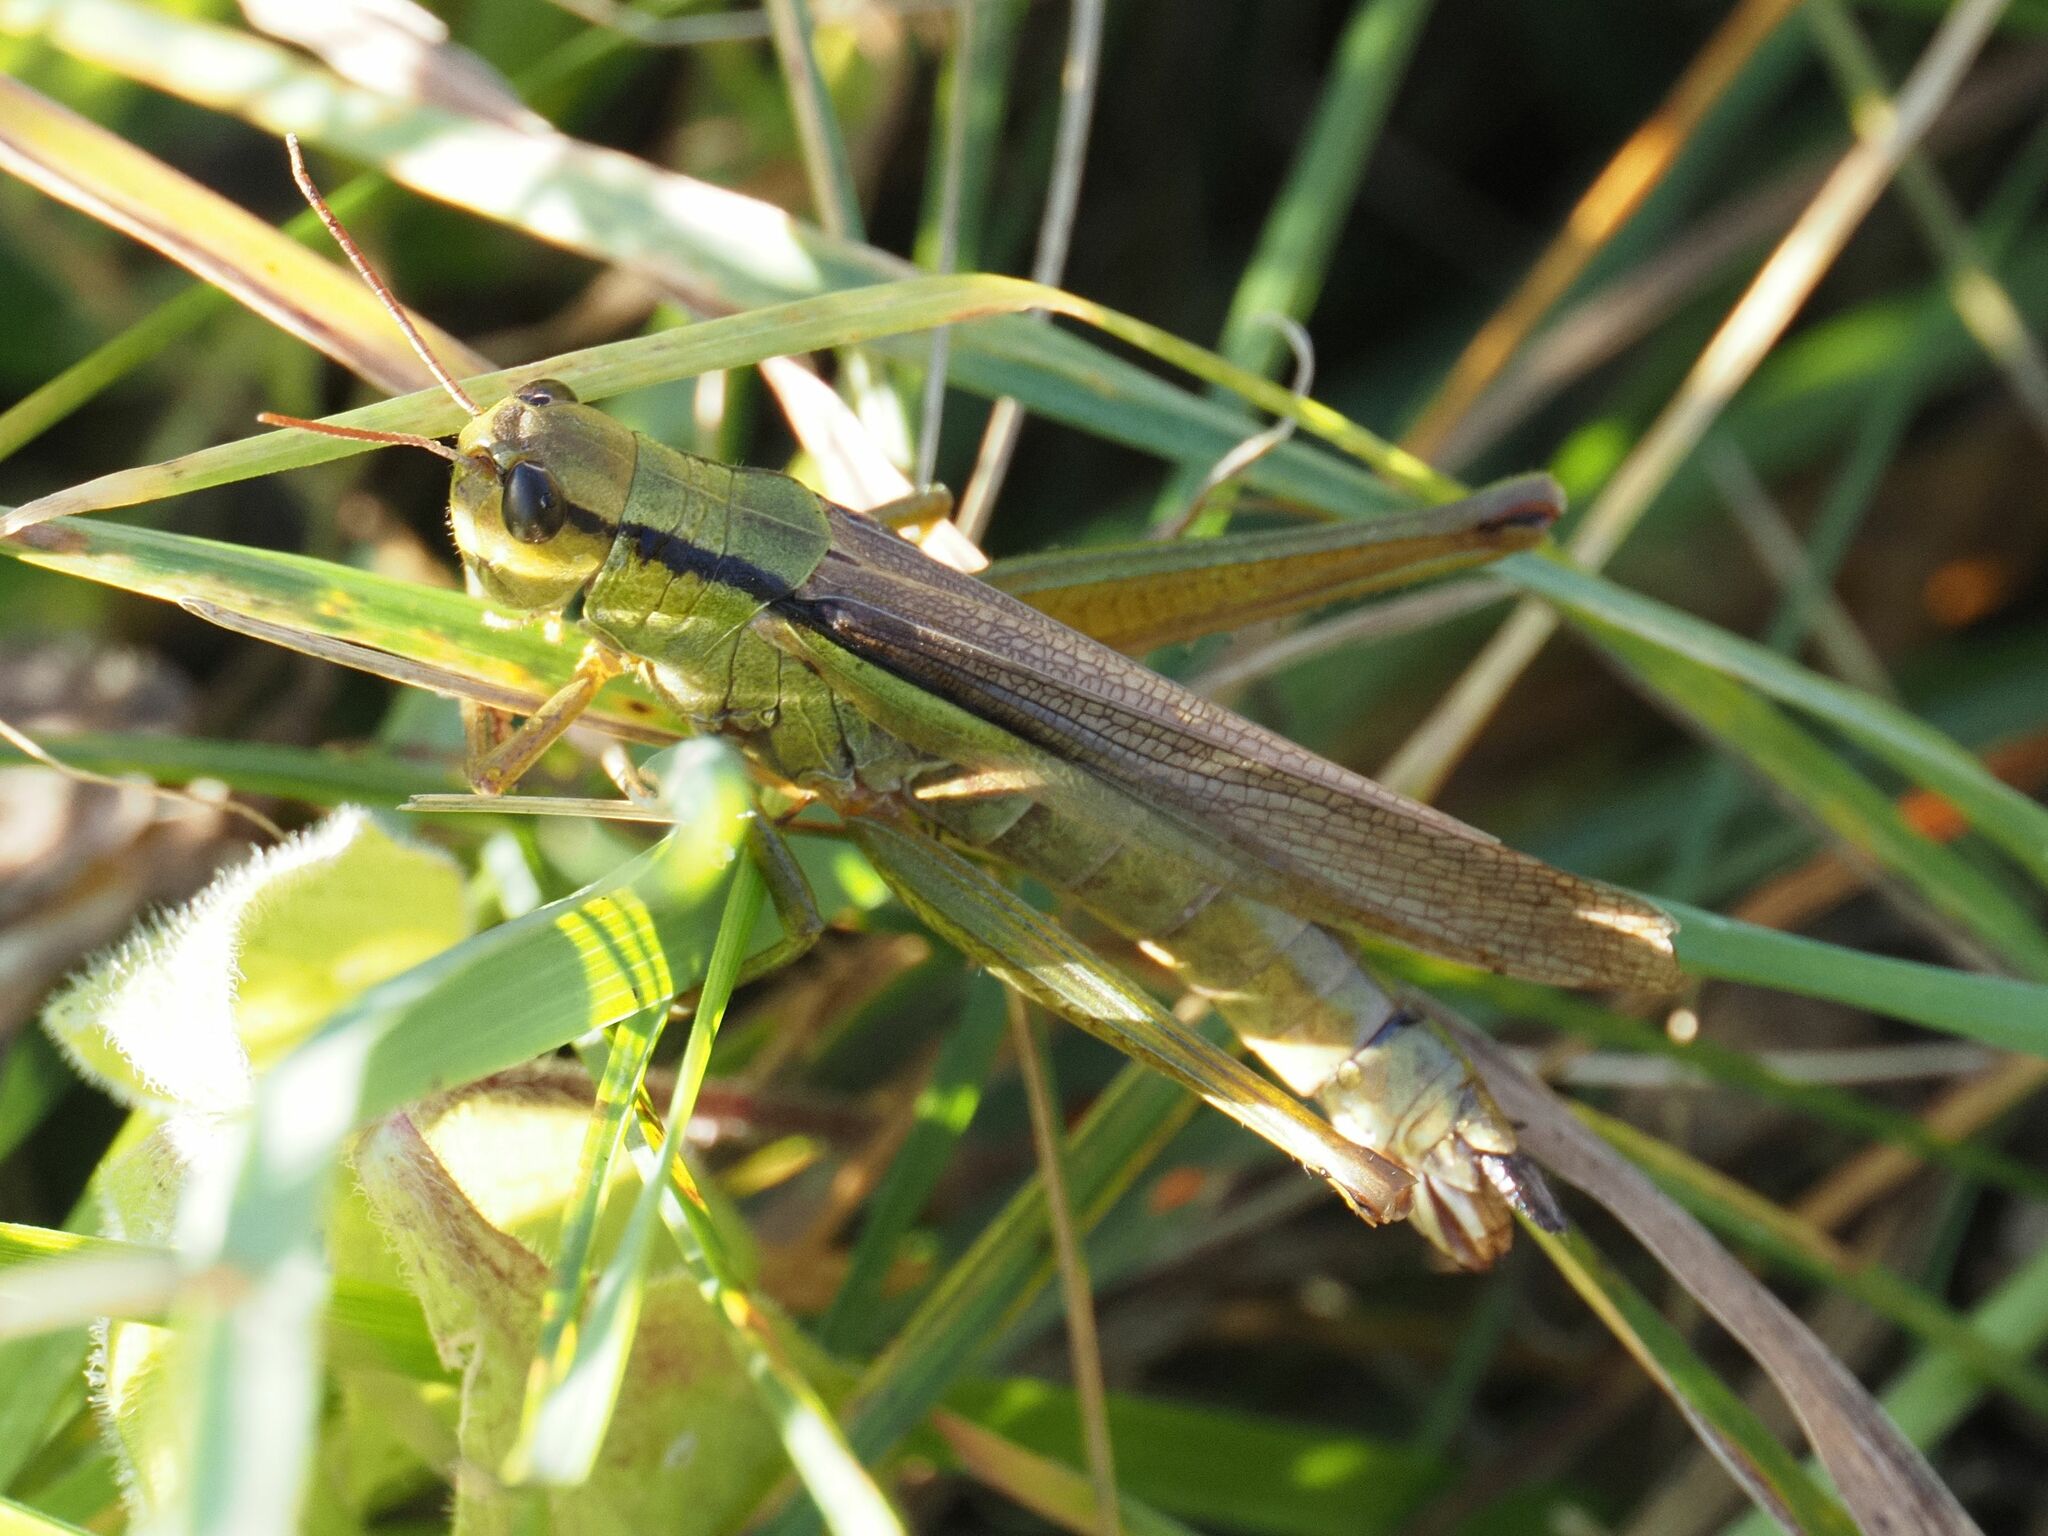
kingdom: Animalia
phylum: Arthropoda
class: Insecta
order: Orthoptera
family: Acrididae
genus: Mecostethus
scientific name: Mecostethus parapleurus
